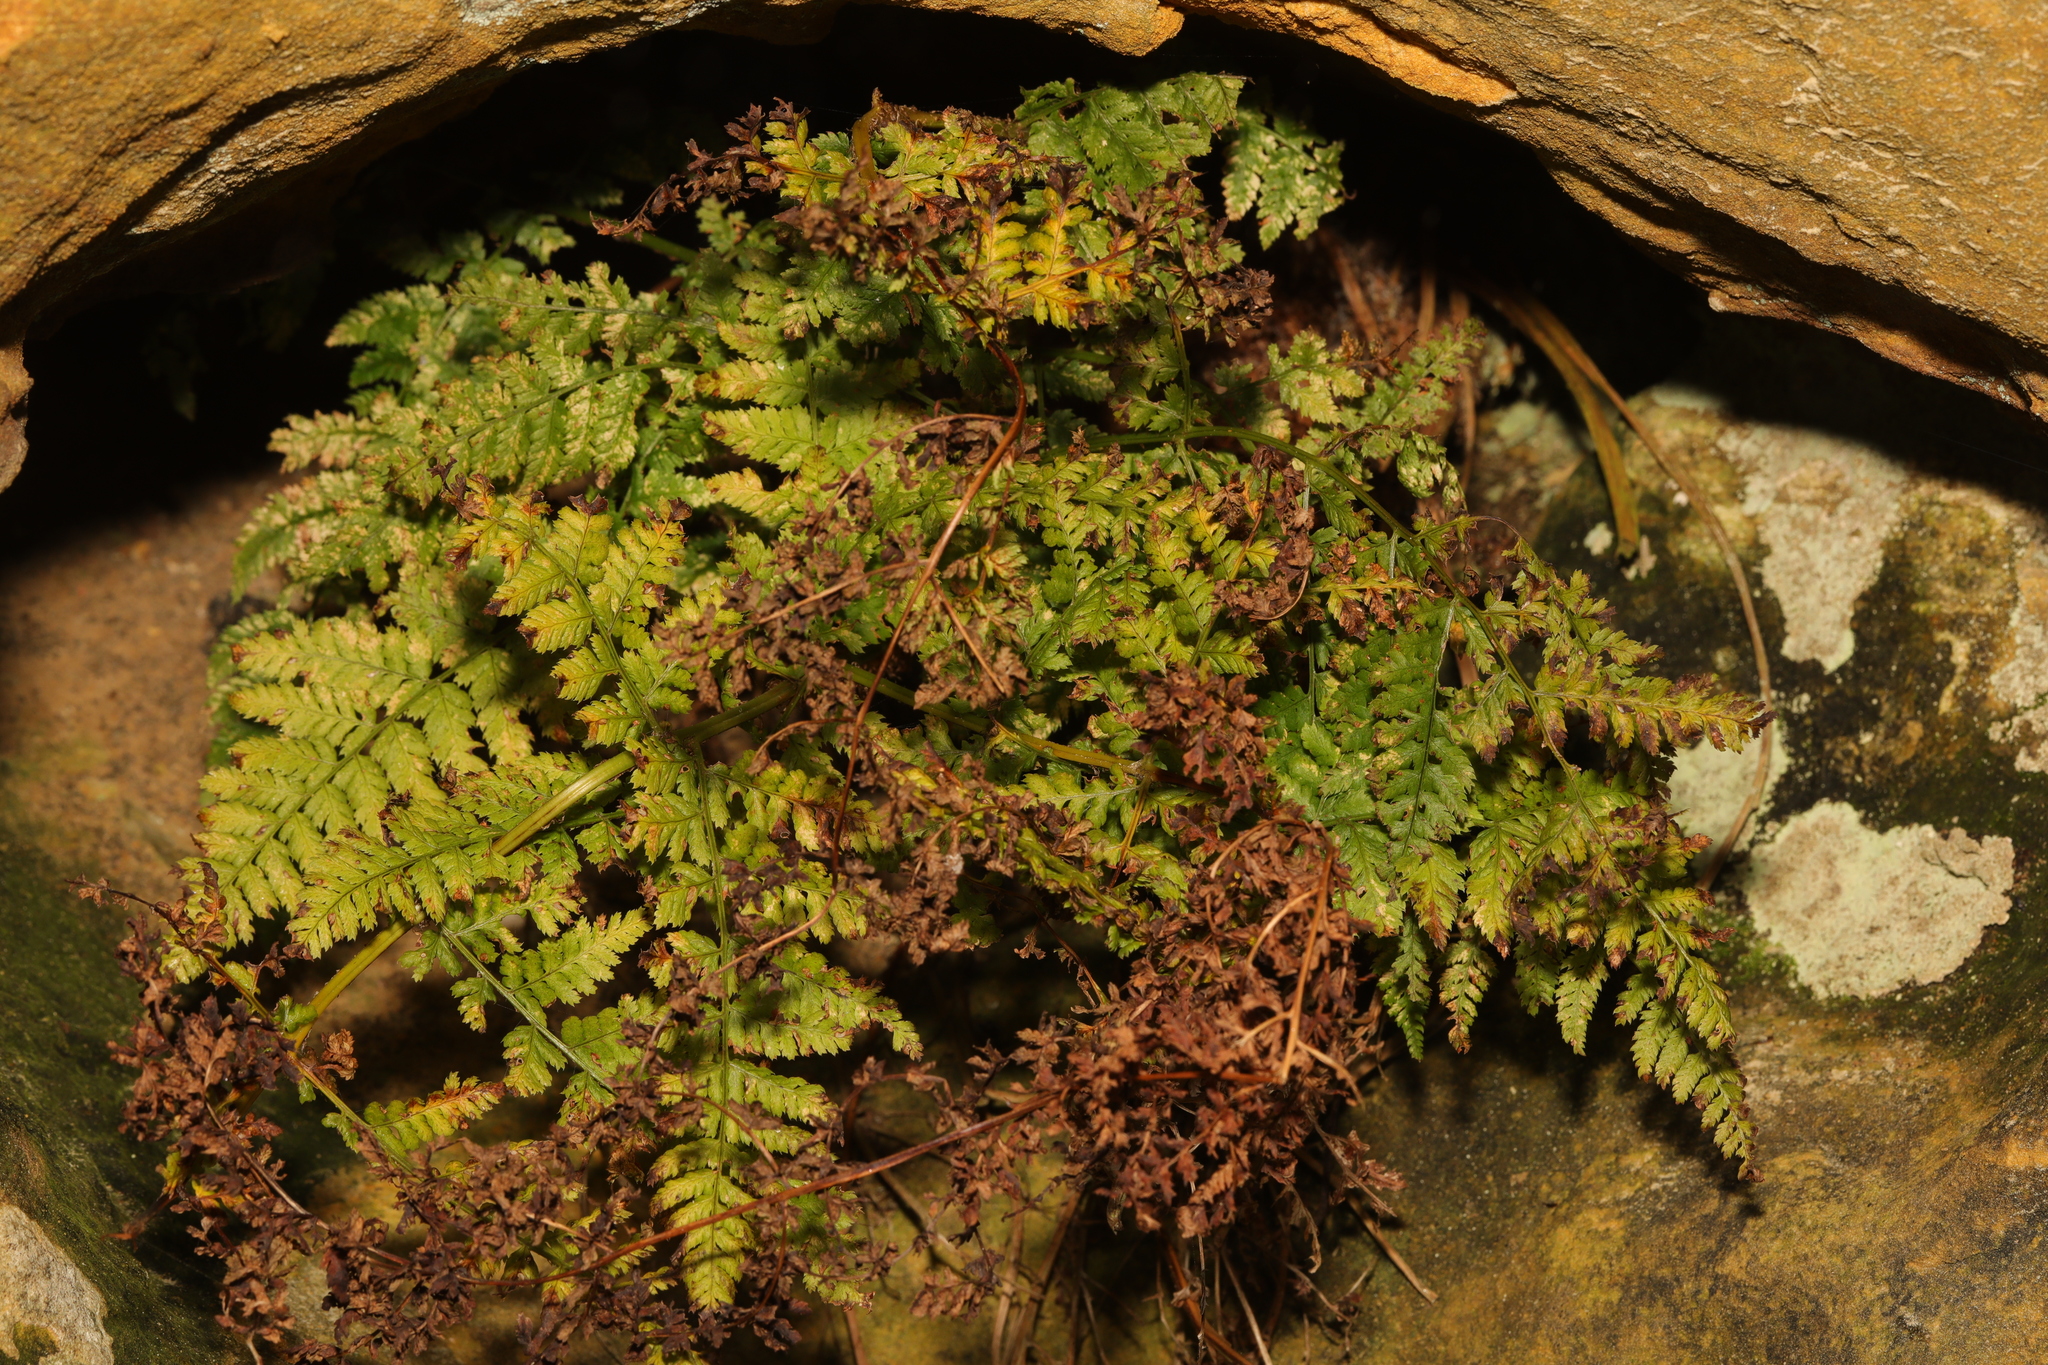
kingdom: Plantae
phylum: Tracheophyta
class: Polypodiopsida
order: Polypodiales
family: Dryopteridaceae
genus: Dryopteris
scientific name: Dryopteris dilatata
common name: Broad buckler-fern
